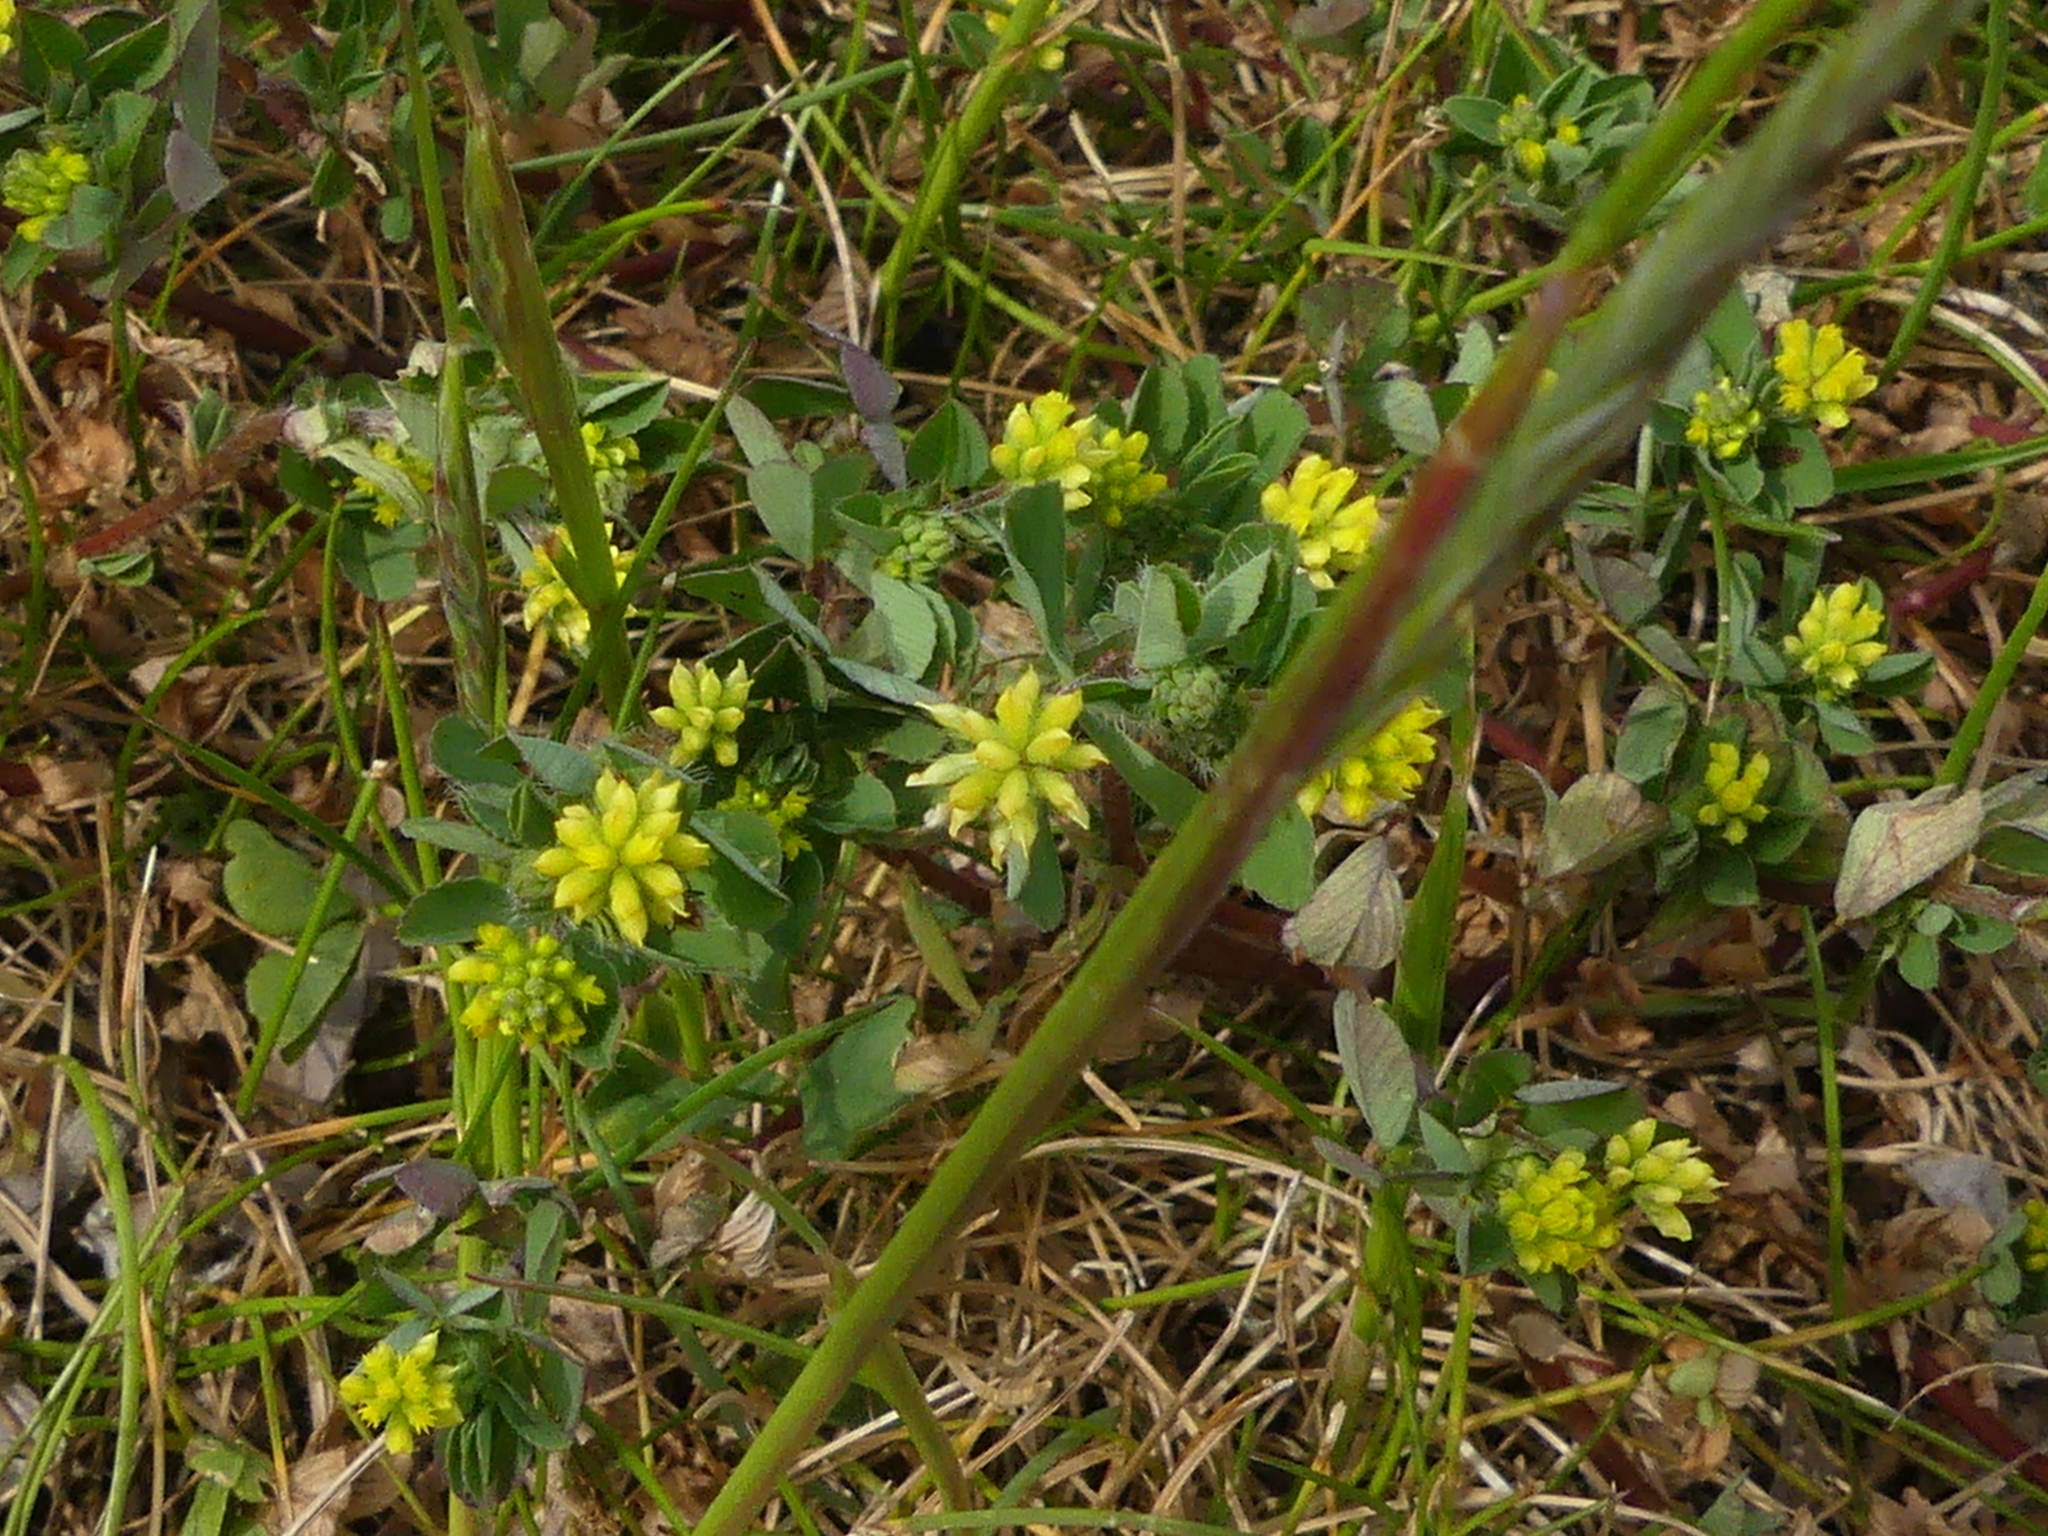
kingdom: Plantae
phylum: Tracheophyta
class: Magnoliopsida
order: Fabales
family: Fabaceae
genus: Trifolium
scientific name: Trifolium dubium
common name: Suckling clover
